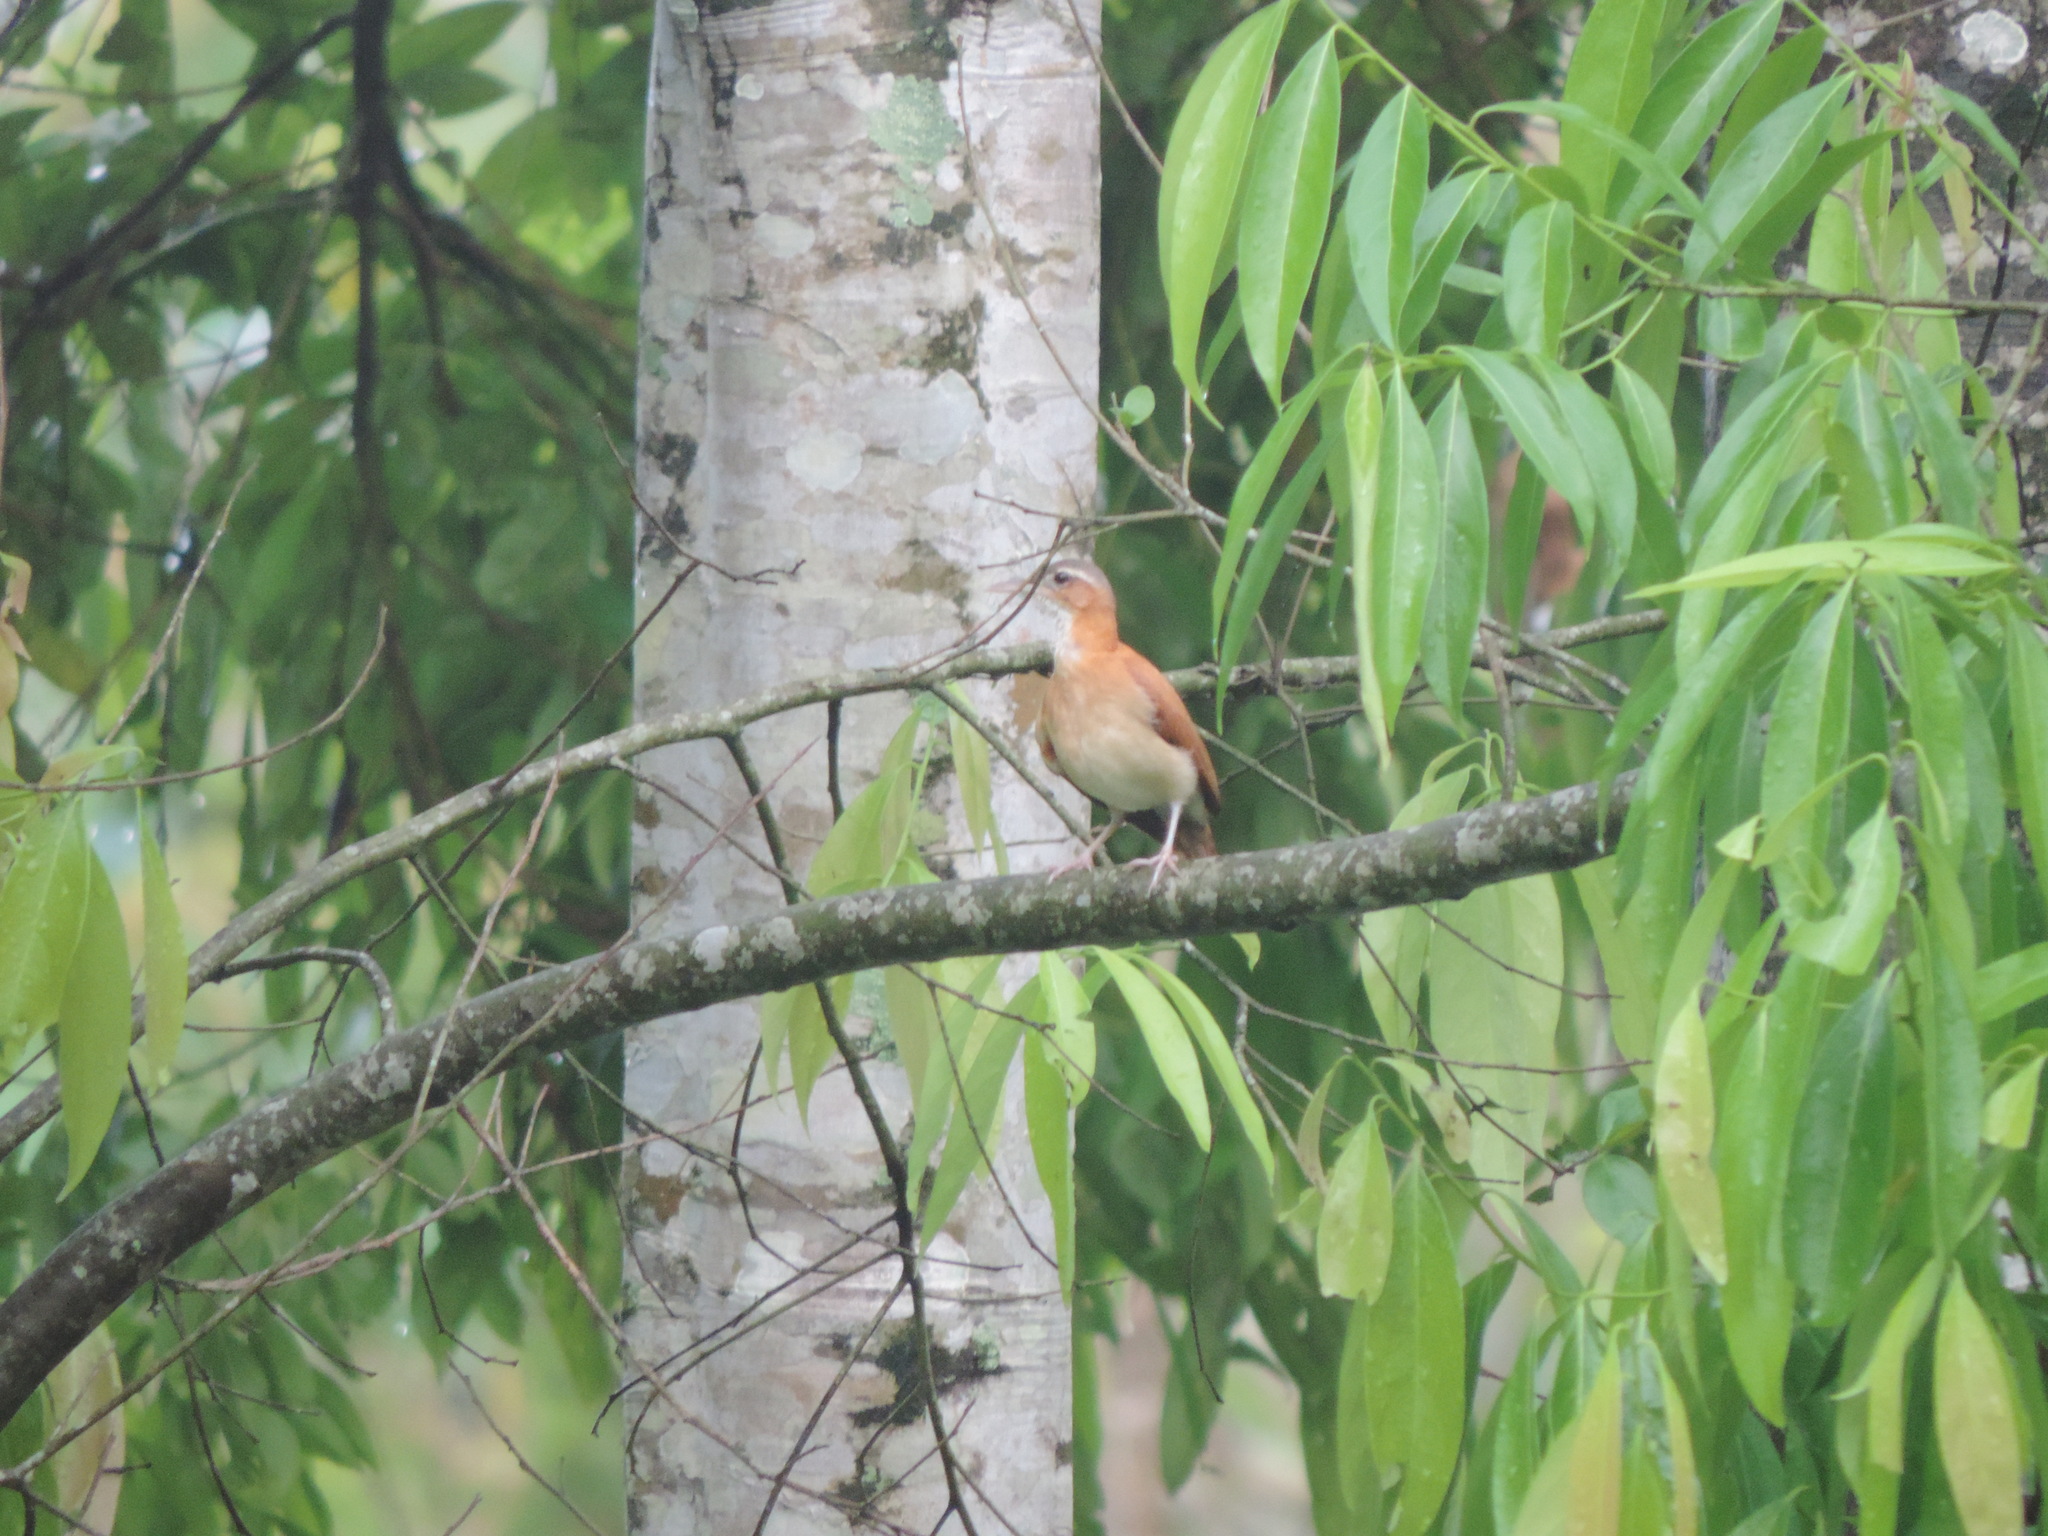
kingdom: Animalia
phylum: Chordata
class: Aves
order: Passeriformes
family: Furnariidae
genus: Furnarius
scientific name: Furnarius longirostris
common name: Caribbean hornero
